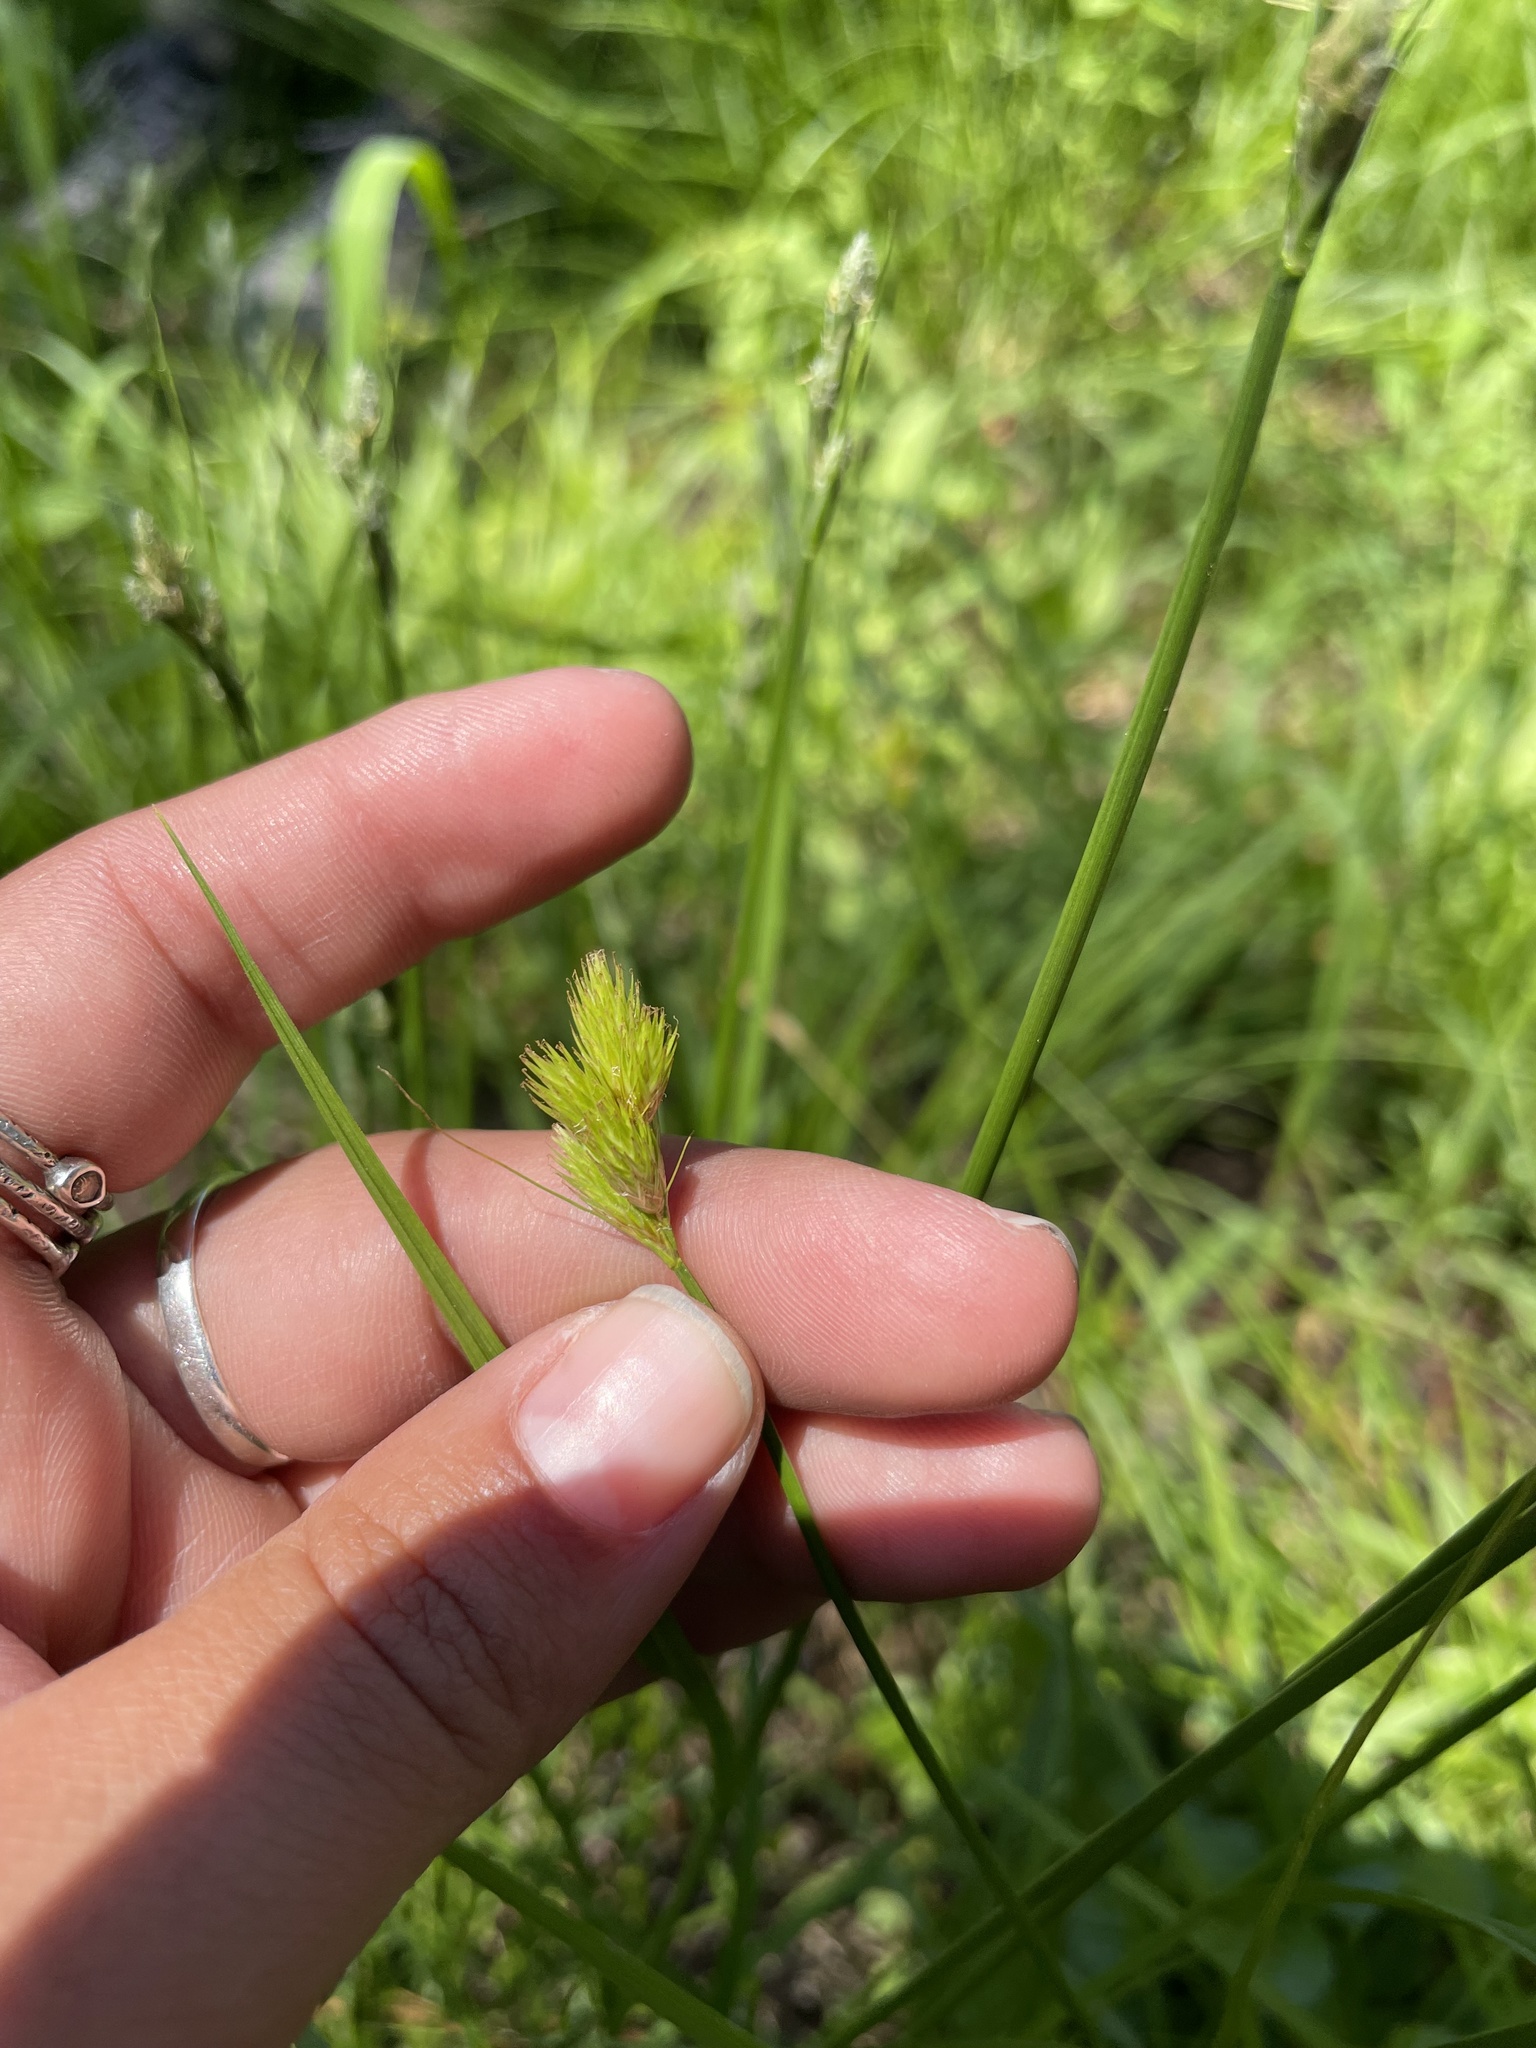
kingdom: Plantae
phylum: Tracheophyta
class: Liliopsida
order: Poales
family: Cyperaceae
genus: Carex
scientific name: Carex scoparia
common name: Broom sedge
